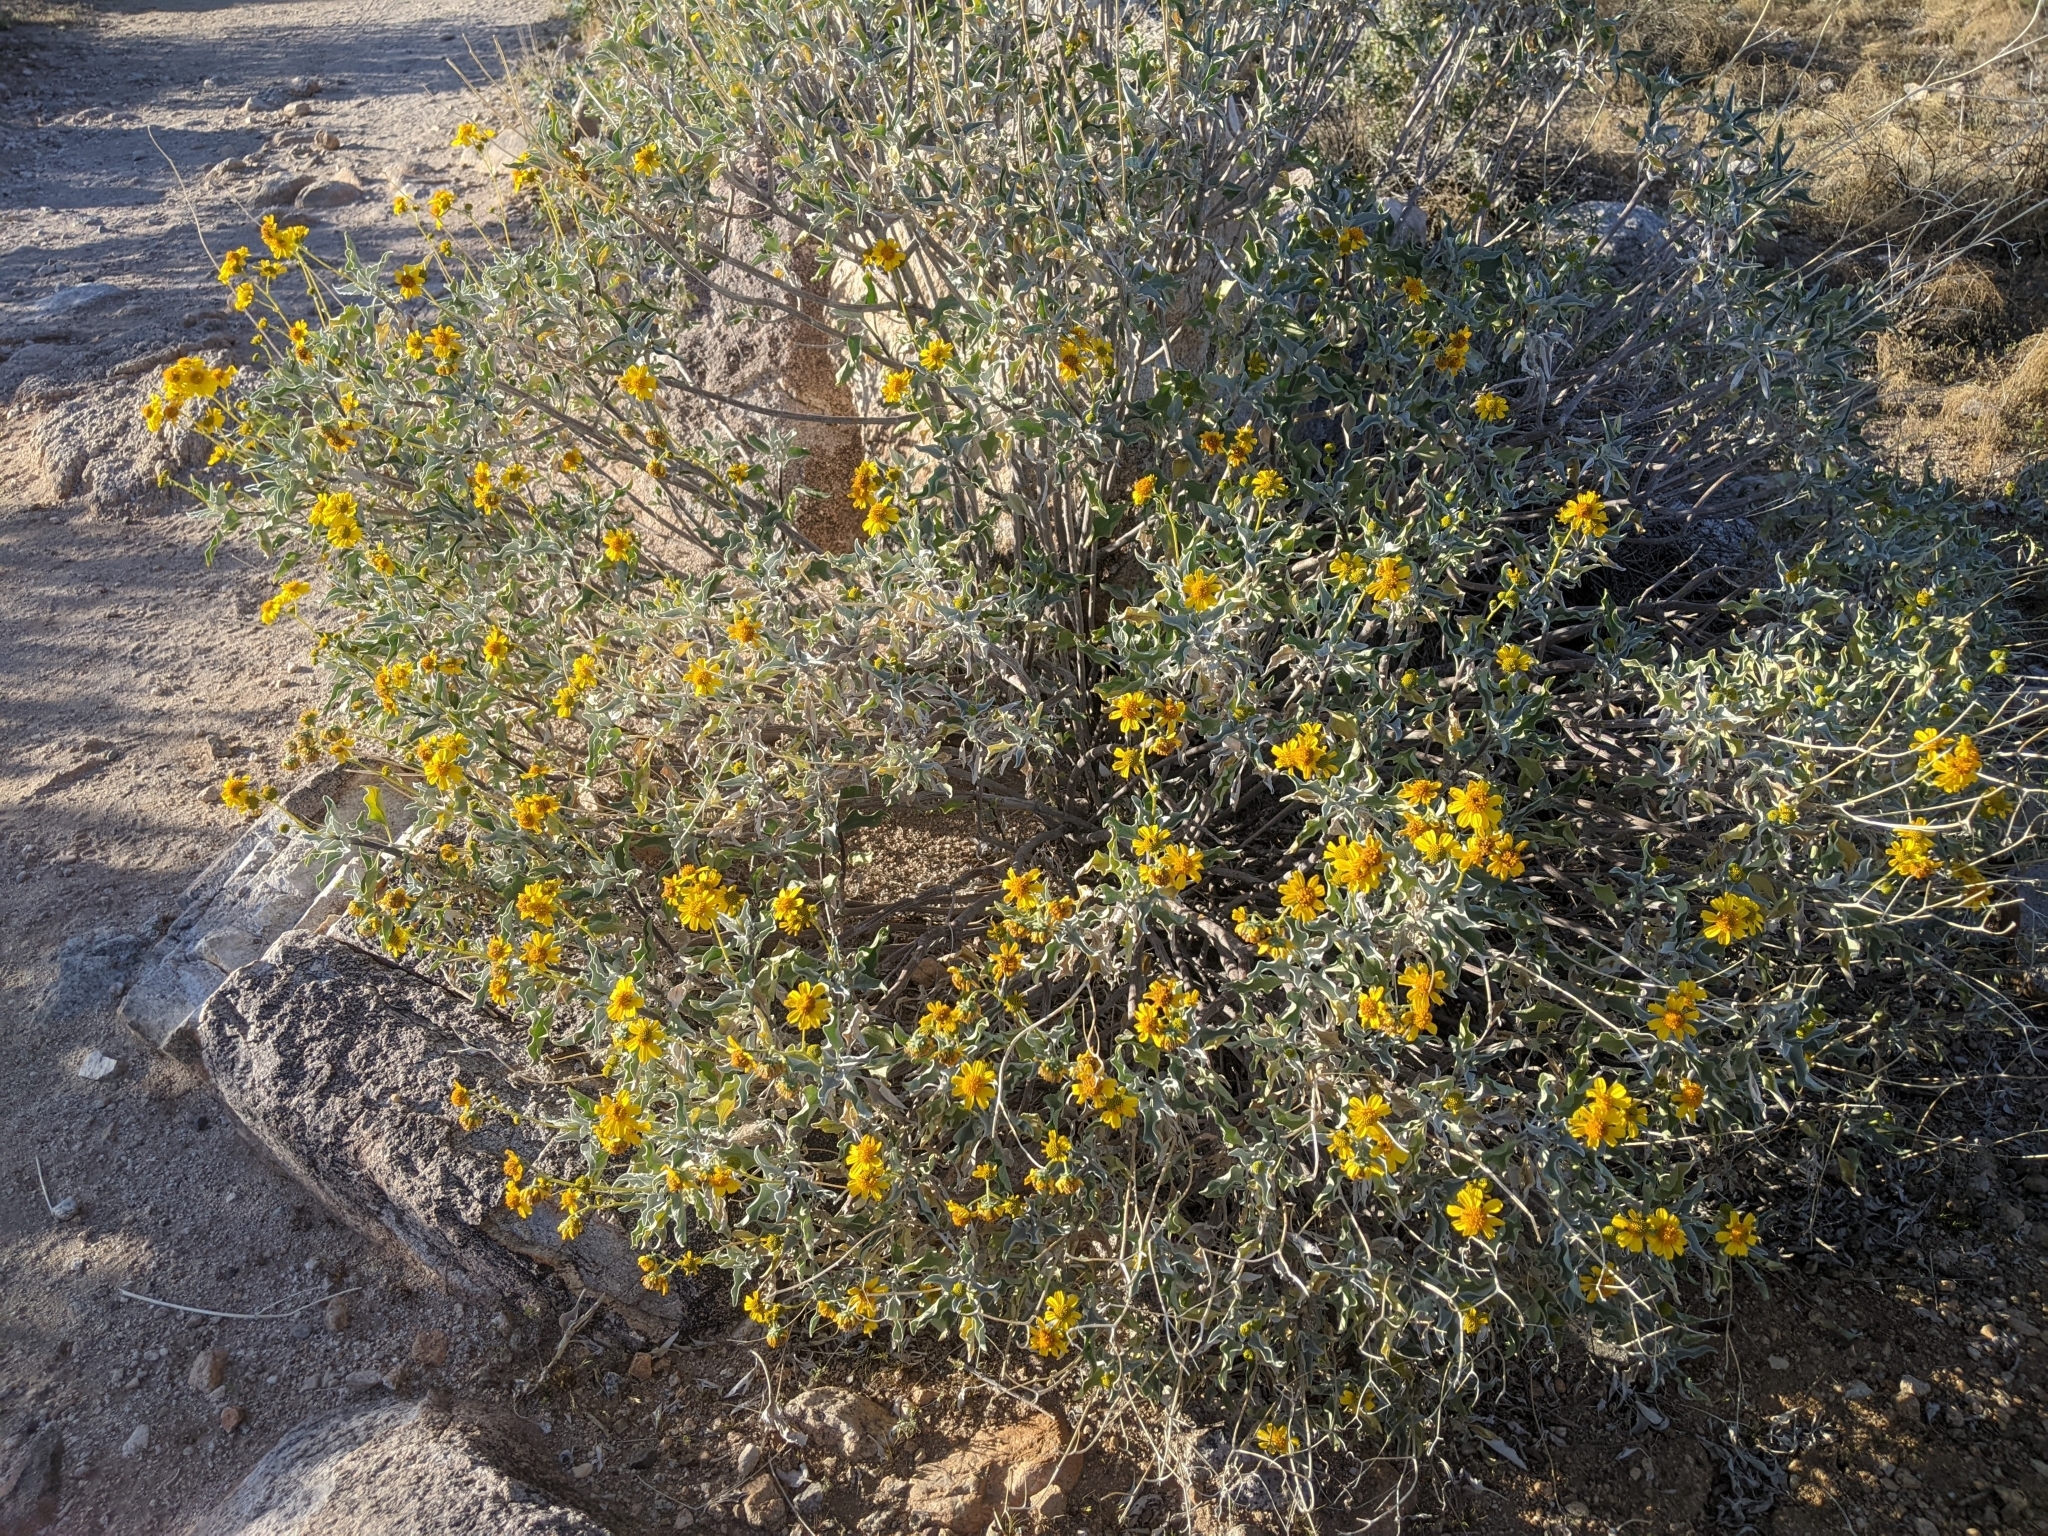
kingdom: Plantae
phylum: Tracheophyta
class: Magnoliopsida
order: Asterales
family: Asteraceae
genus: Encelia
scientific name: Encelia farinosa
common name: Brittlebush
